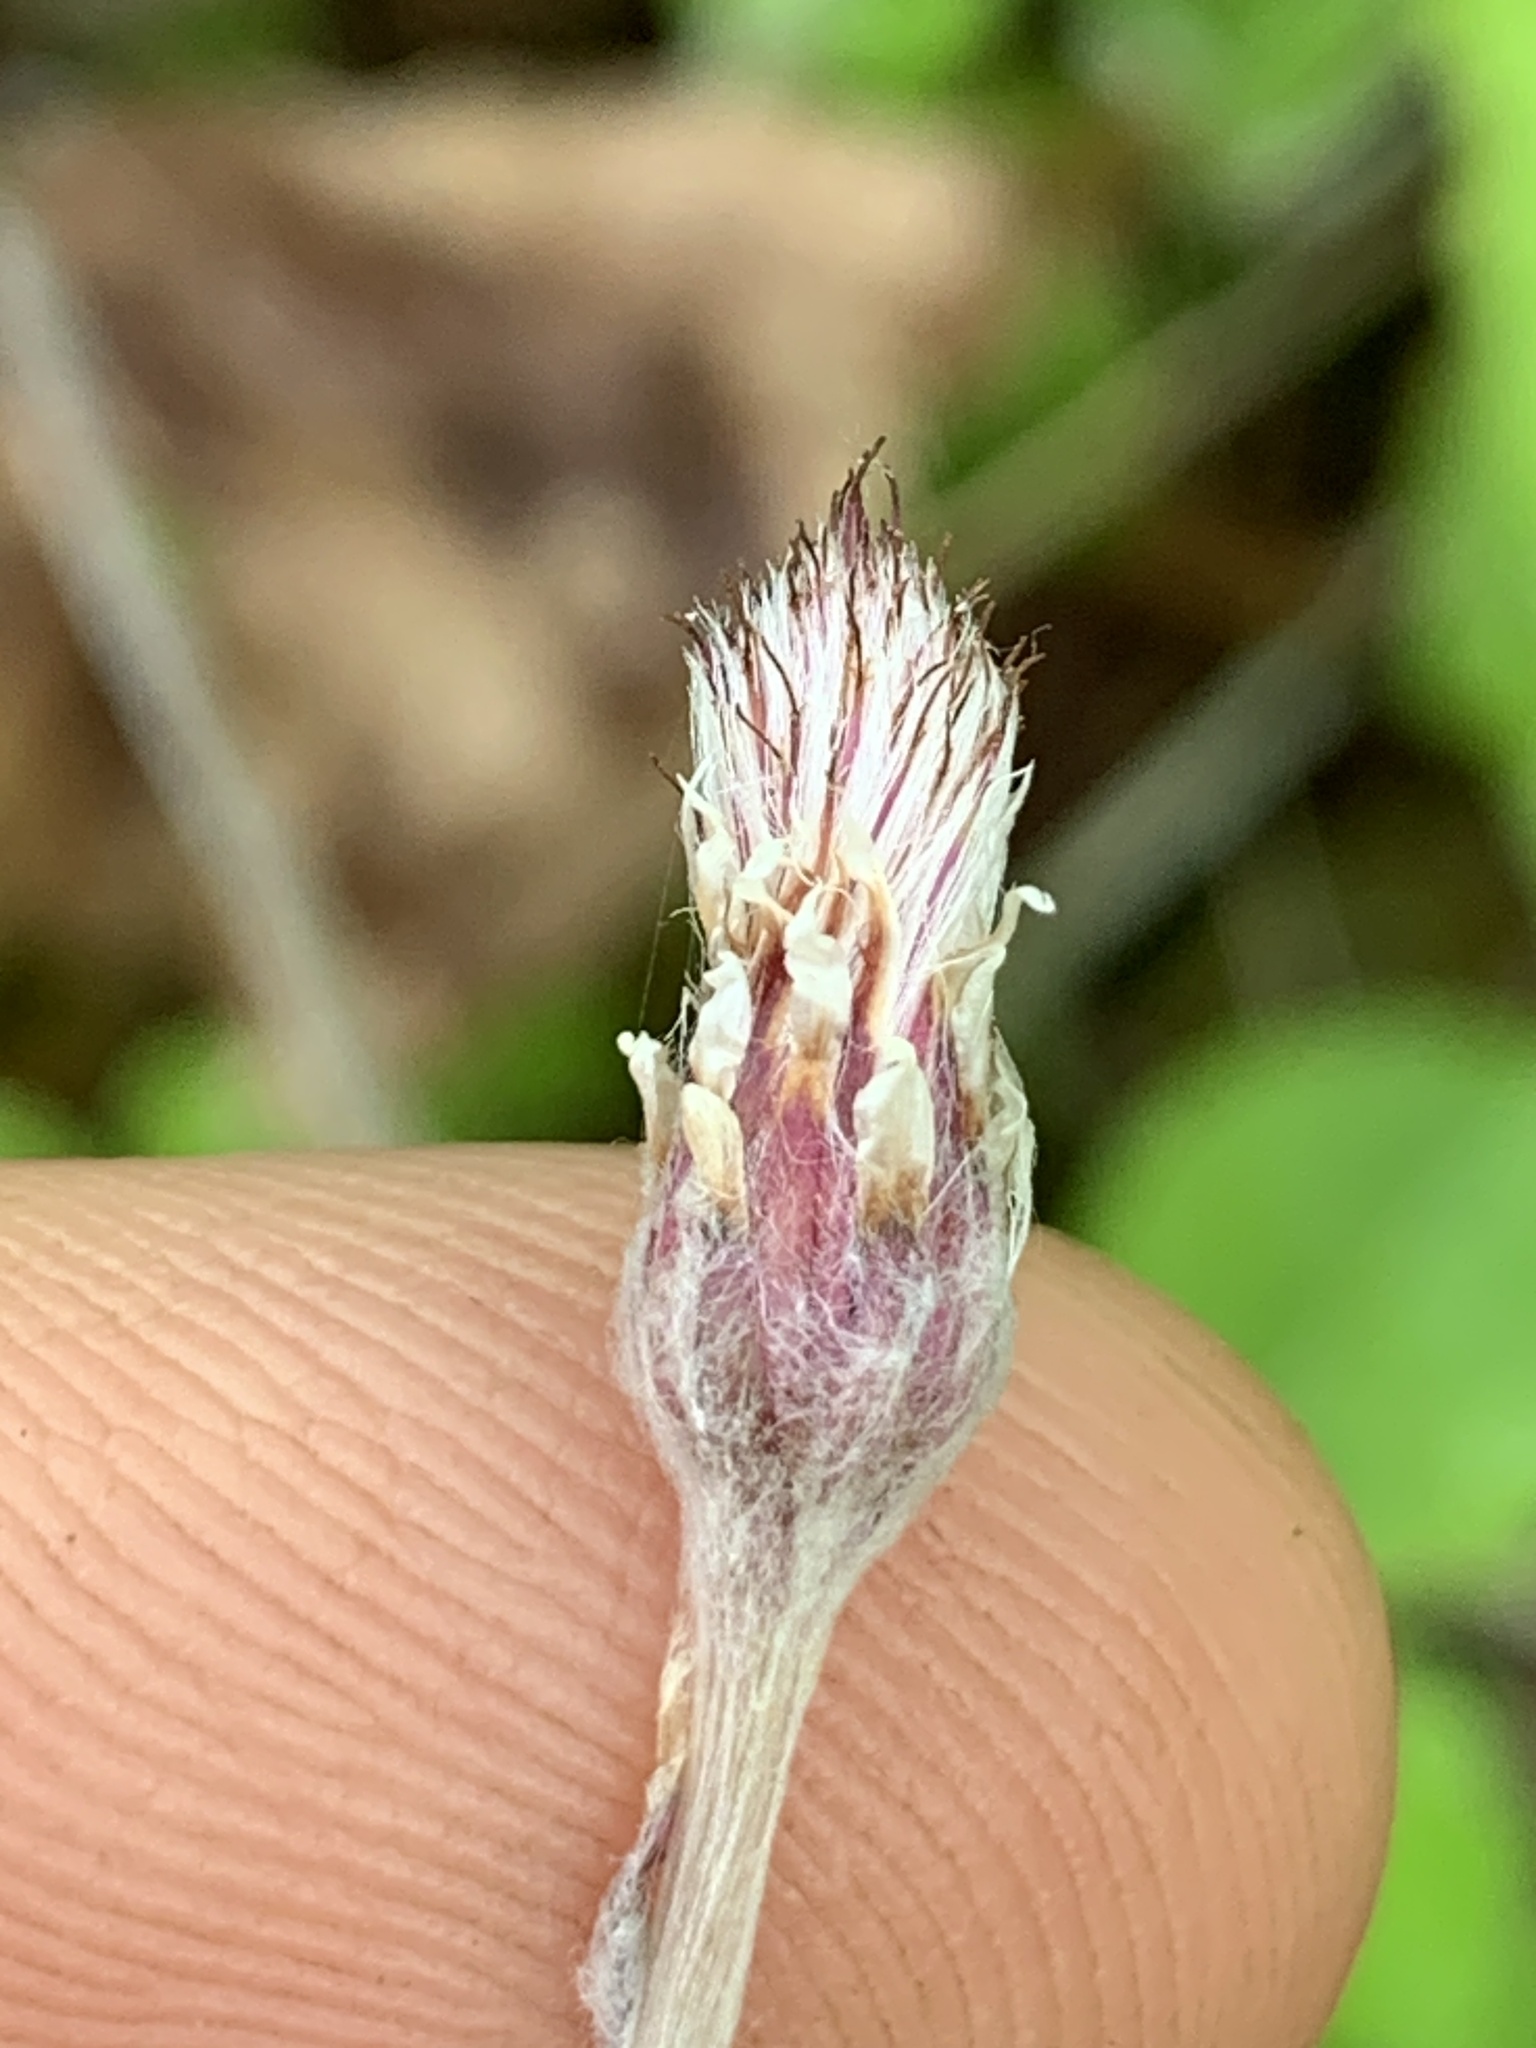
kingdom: Plantae
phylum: Tracheophyta
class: Magnoliopsida
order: Asterales
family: Asteraceae
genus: Antennaria
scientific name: Antennaria solitaria
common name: Single-head pussytoes
